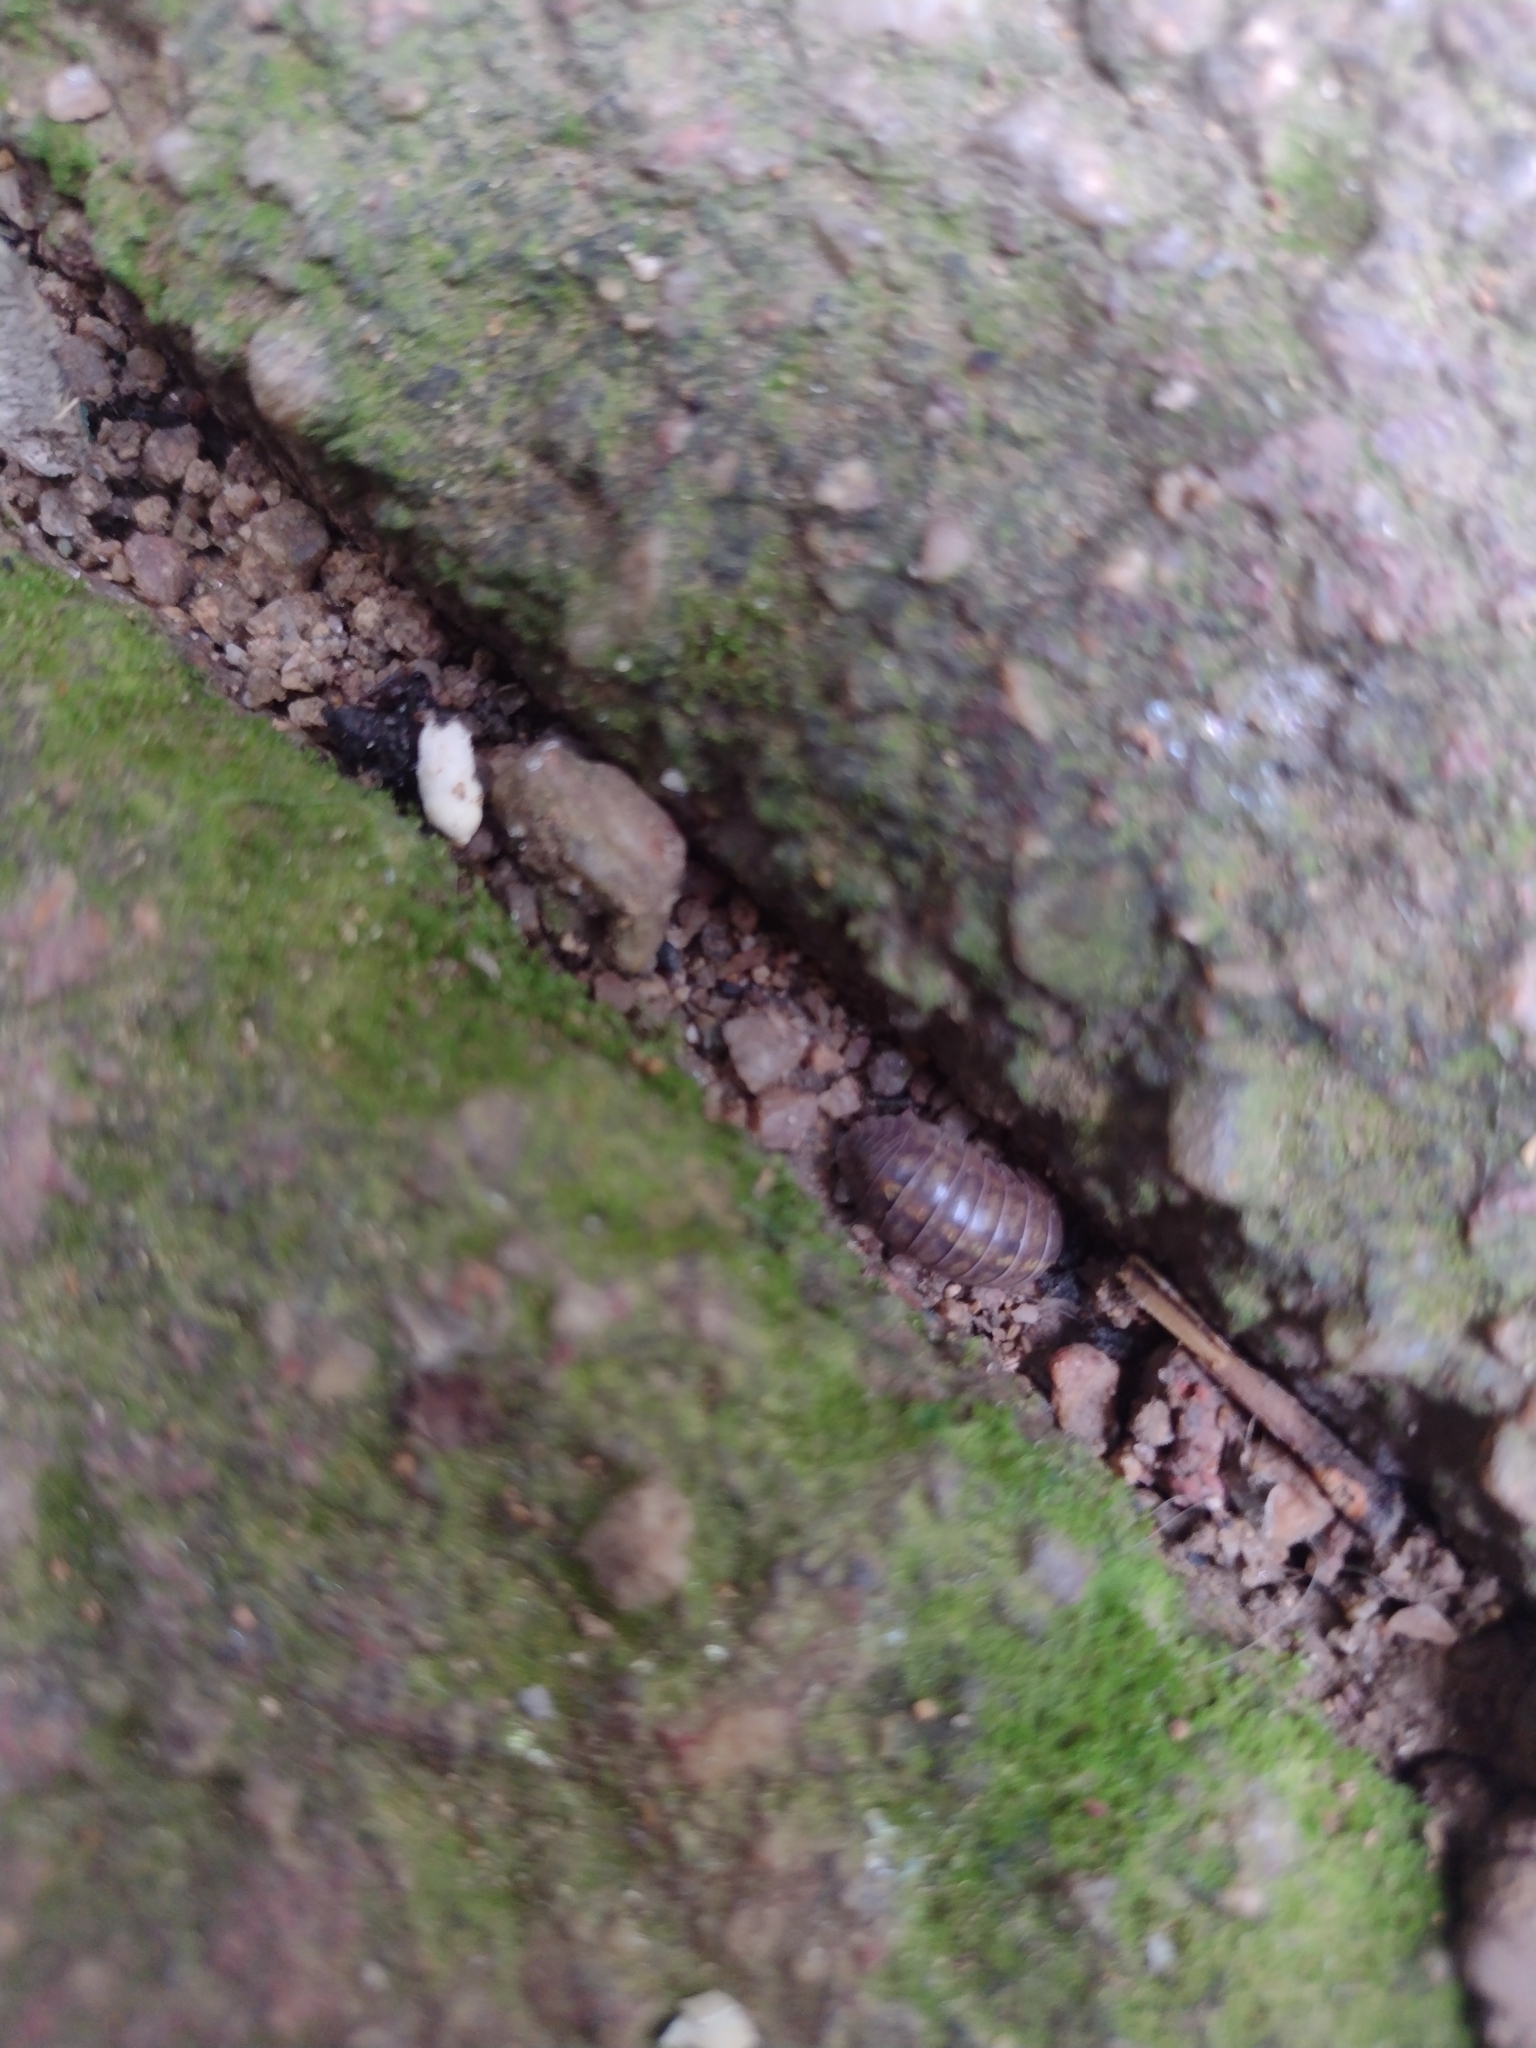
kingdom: Animalia
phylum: Arthropoda
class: Malacostraca
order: Isopoda
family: Armadillidiidae
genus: Armadillidium
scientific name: Armadillidium vulgare
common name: Common pill woodlouse
